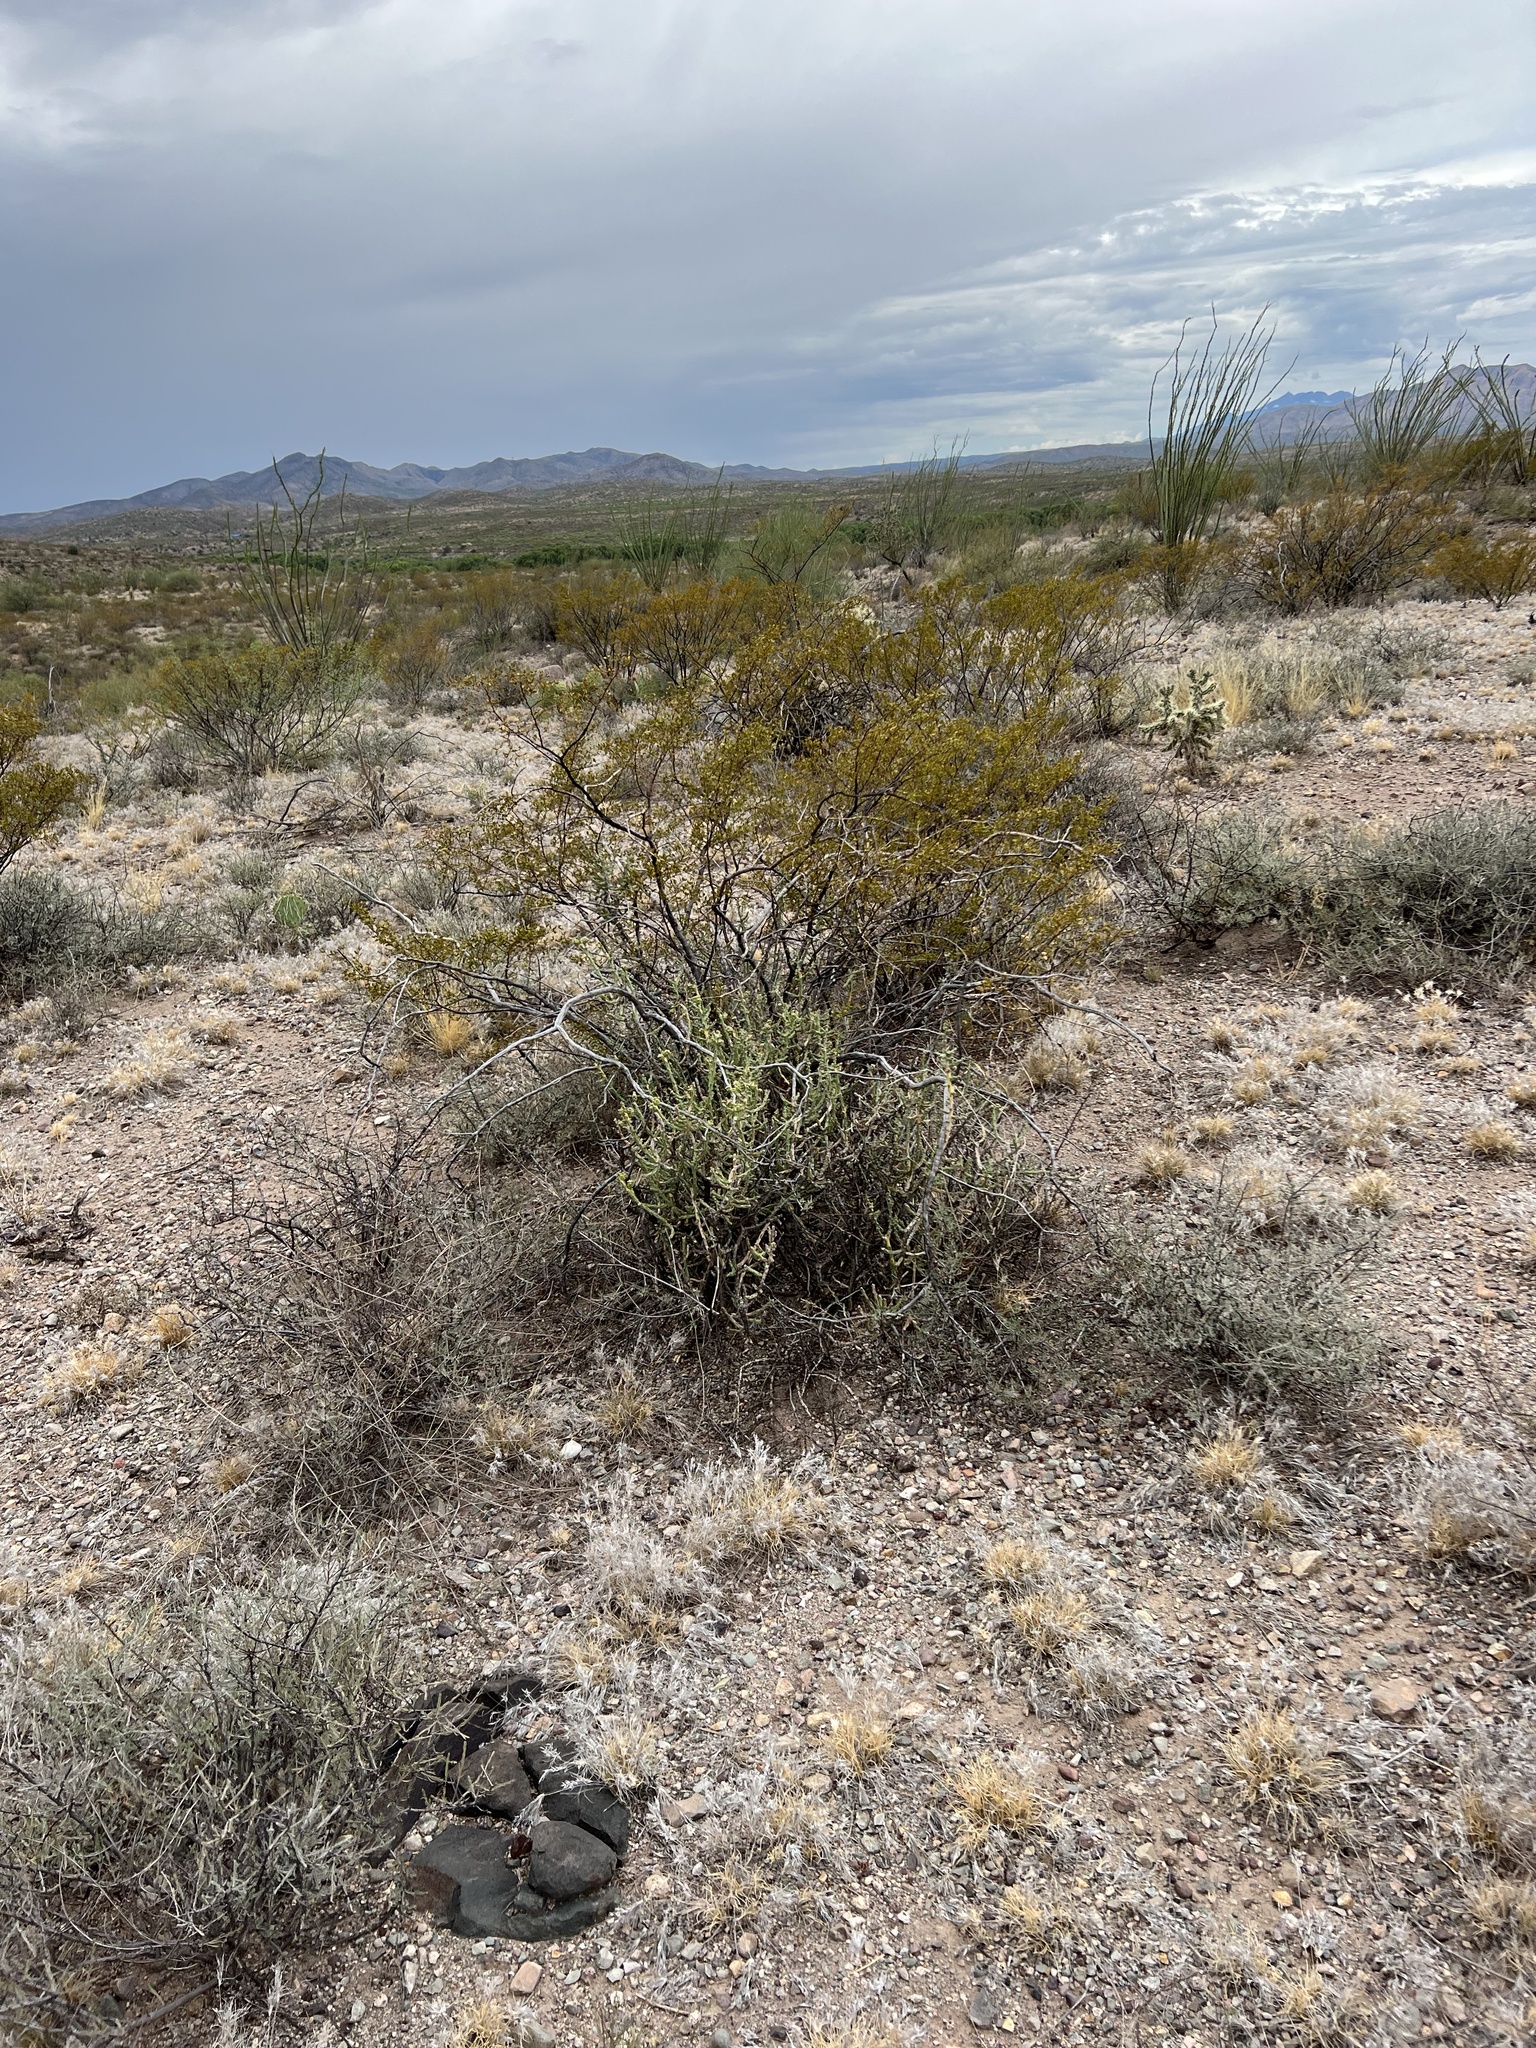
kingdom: Plantae
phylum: Tracheophyta
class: Magnoliopsida
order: Zygophyllales
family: Zygophyllaceae
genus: Larrea
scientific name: Larrea tridentata
